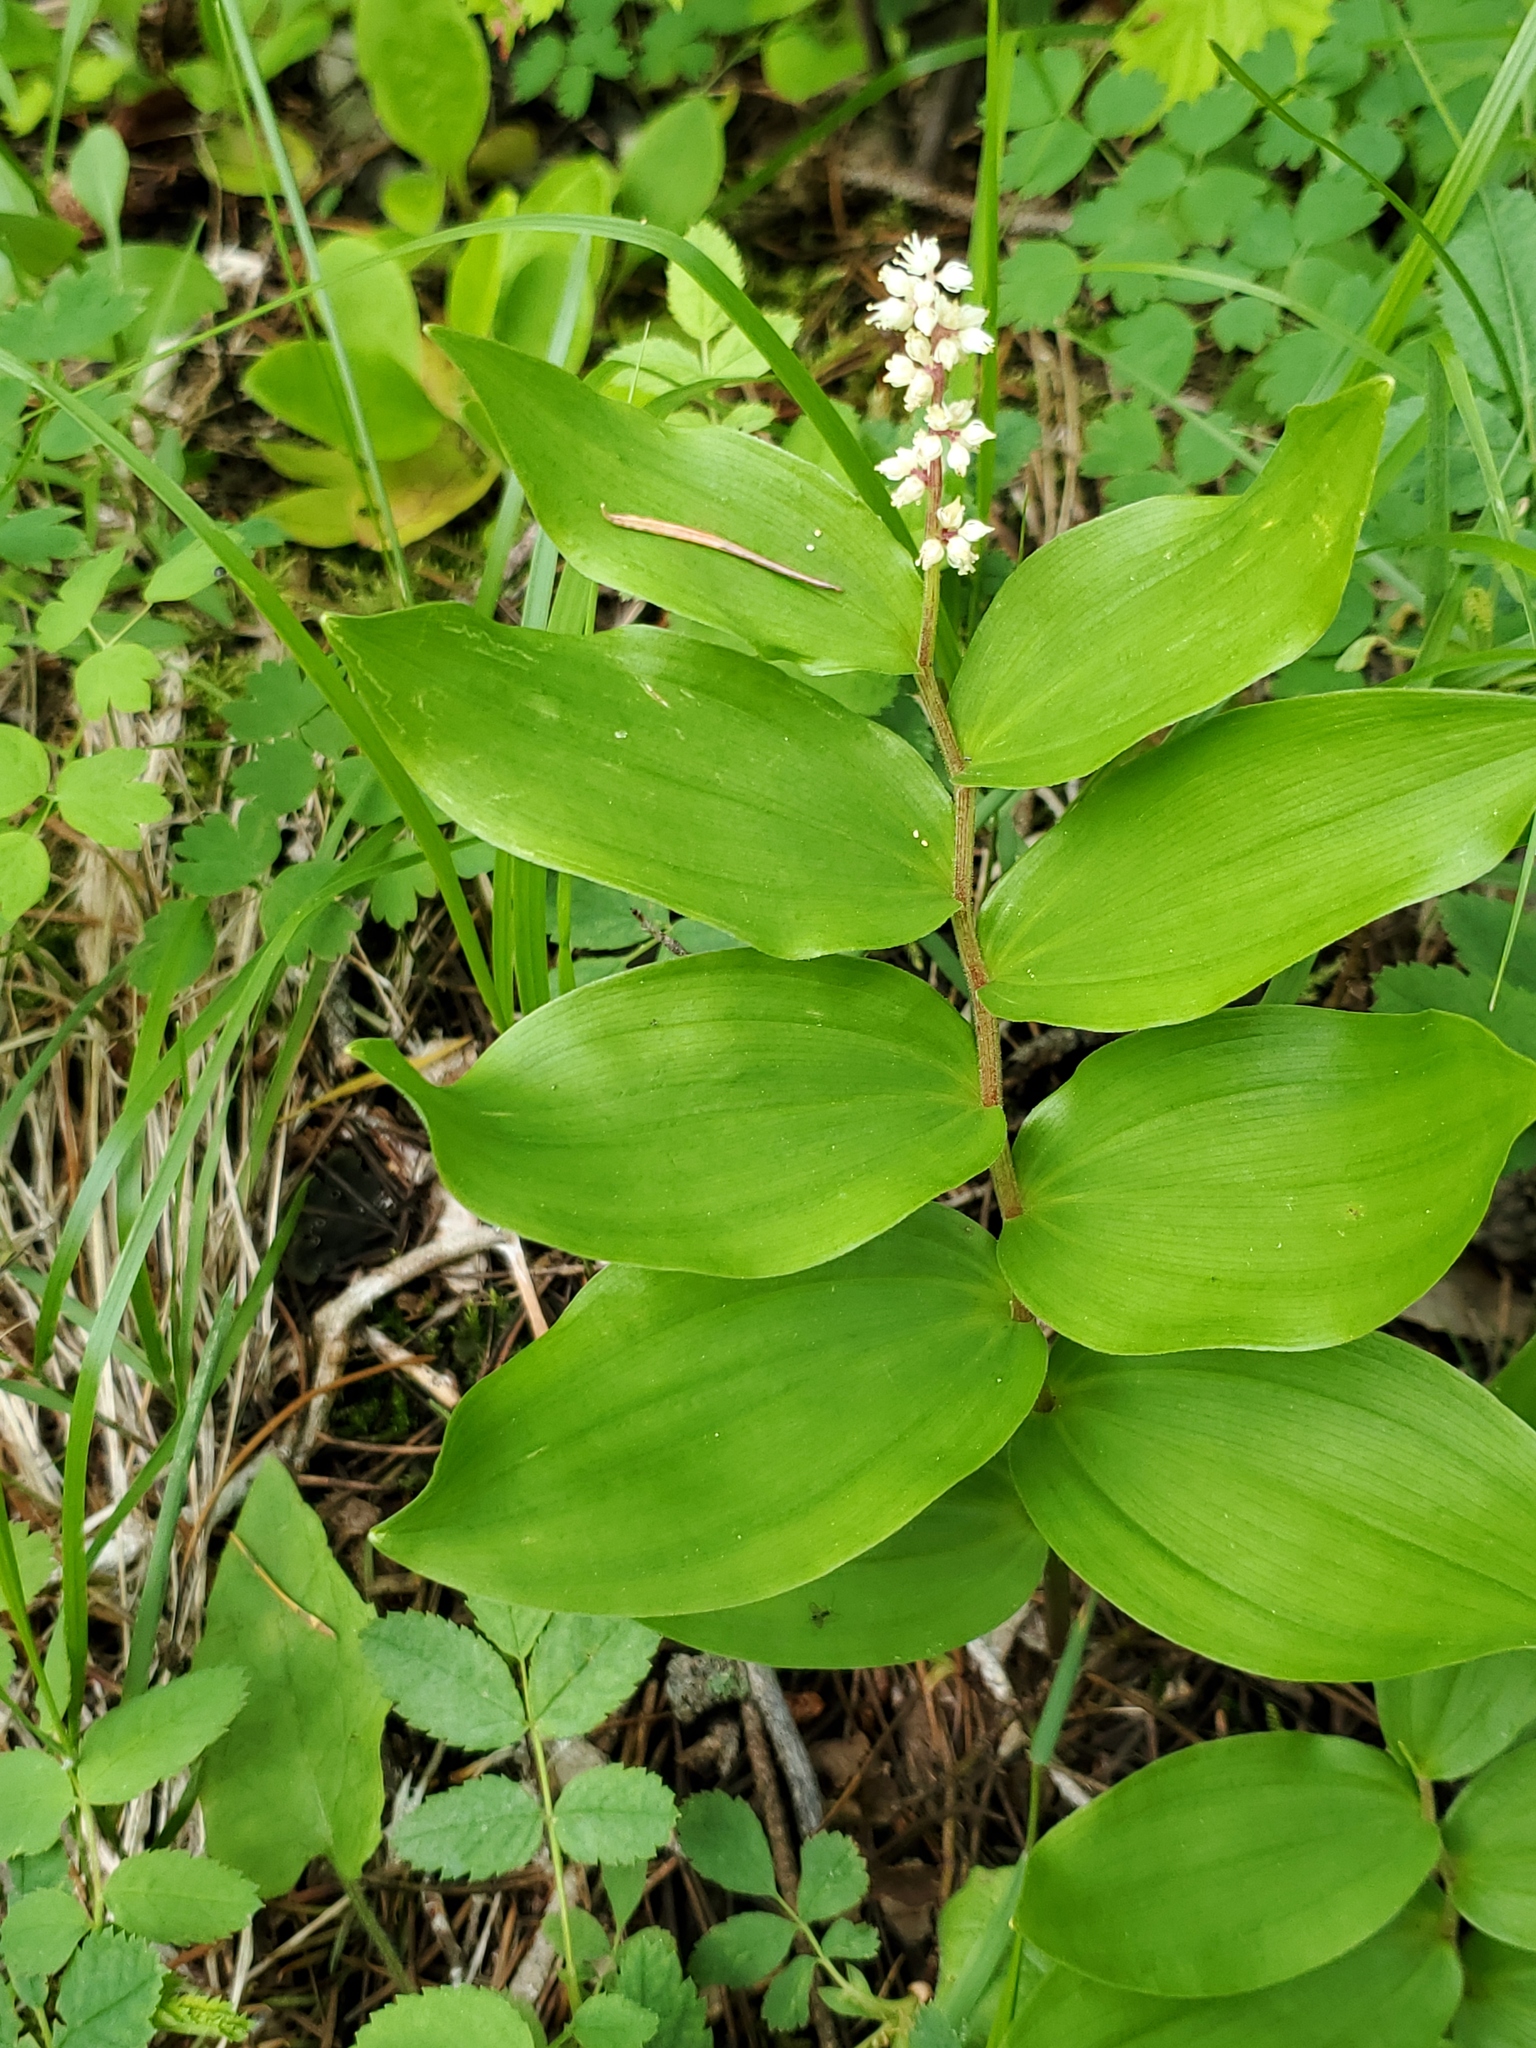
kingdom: Plantae
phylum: Tracheophyta
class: Liliopsida
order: Asparagales
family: Asparagaceae
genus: Maianthemum
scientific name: Maianthemum racemosum
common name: False spikenard
